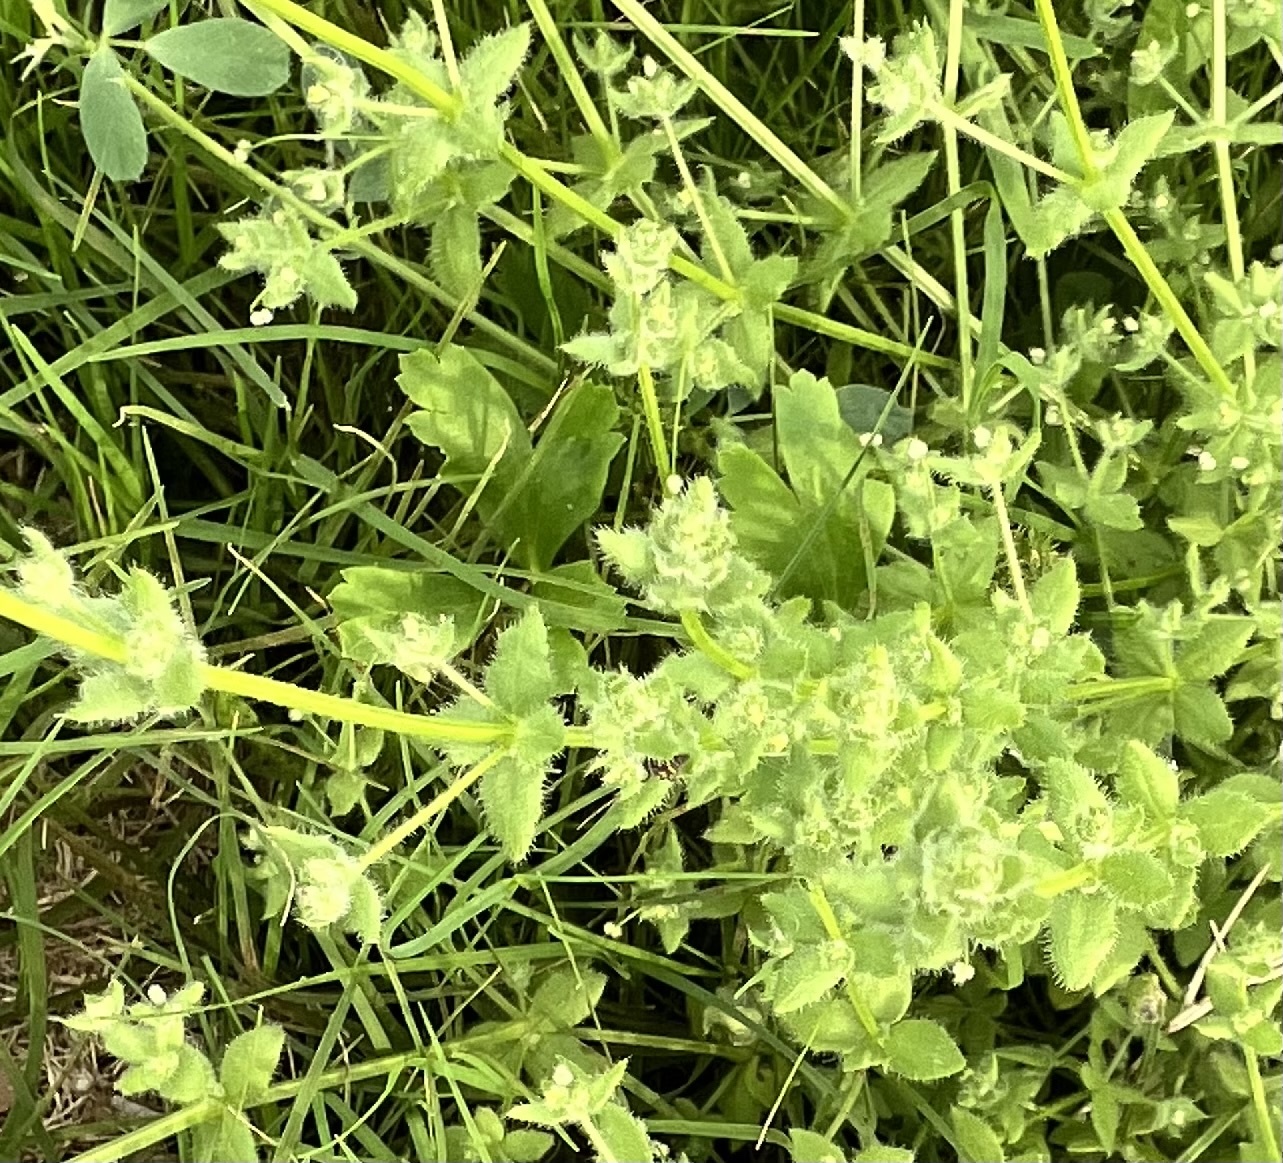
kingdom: Plantae
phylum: Tracheophyta
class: Magnoliopsida
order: Gentianales
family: Rubiaceae
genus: Galium
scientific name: Galium texense
